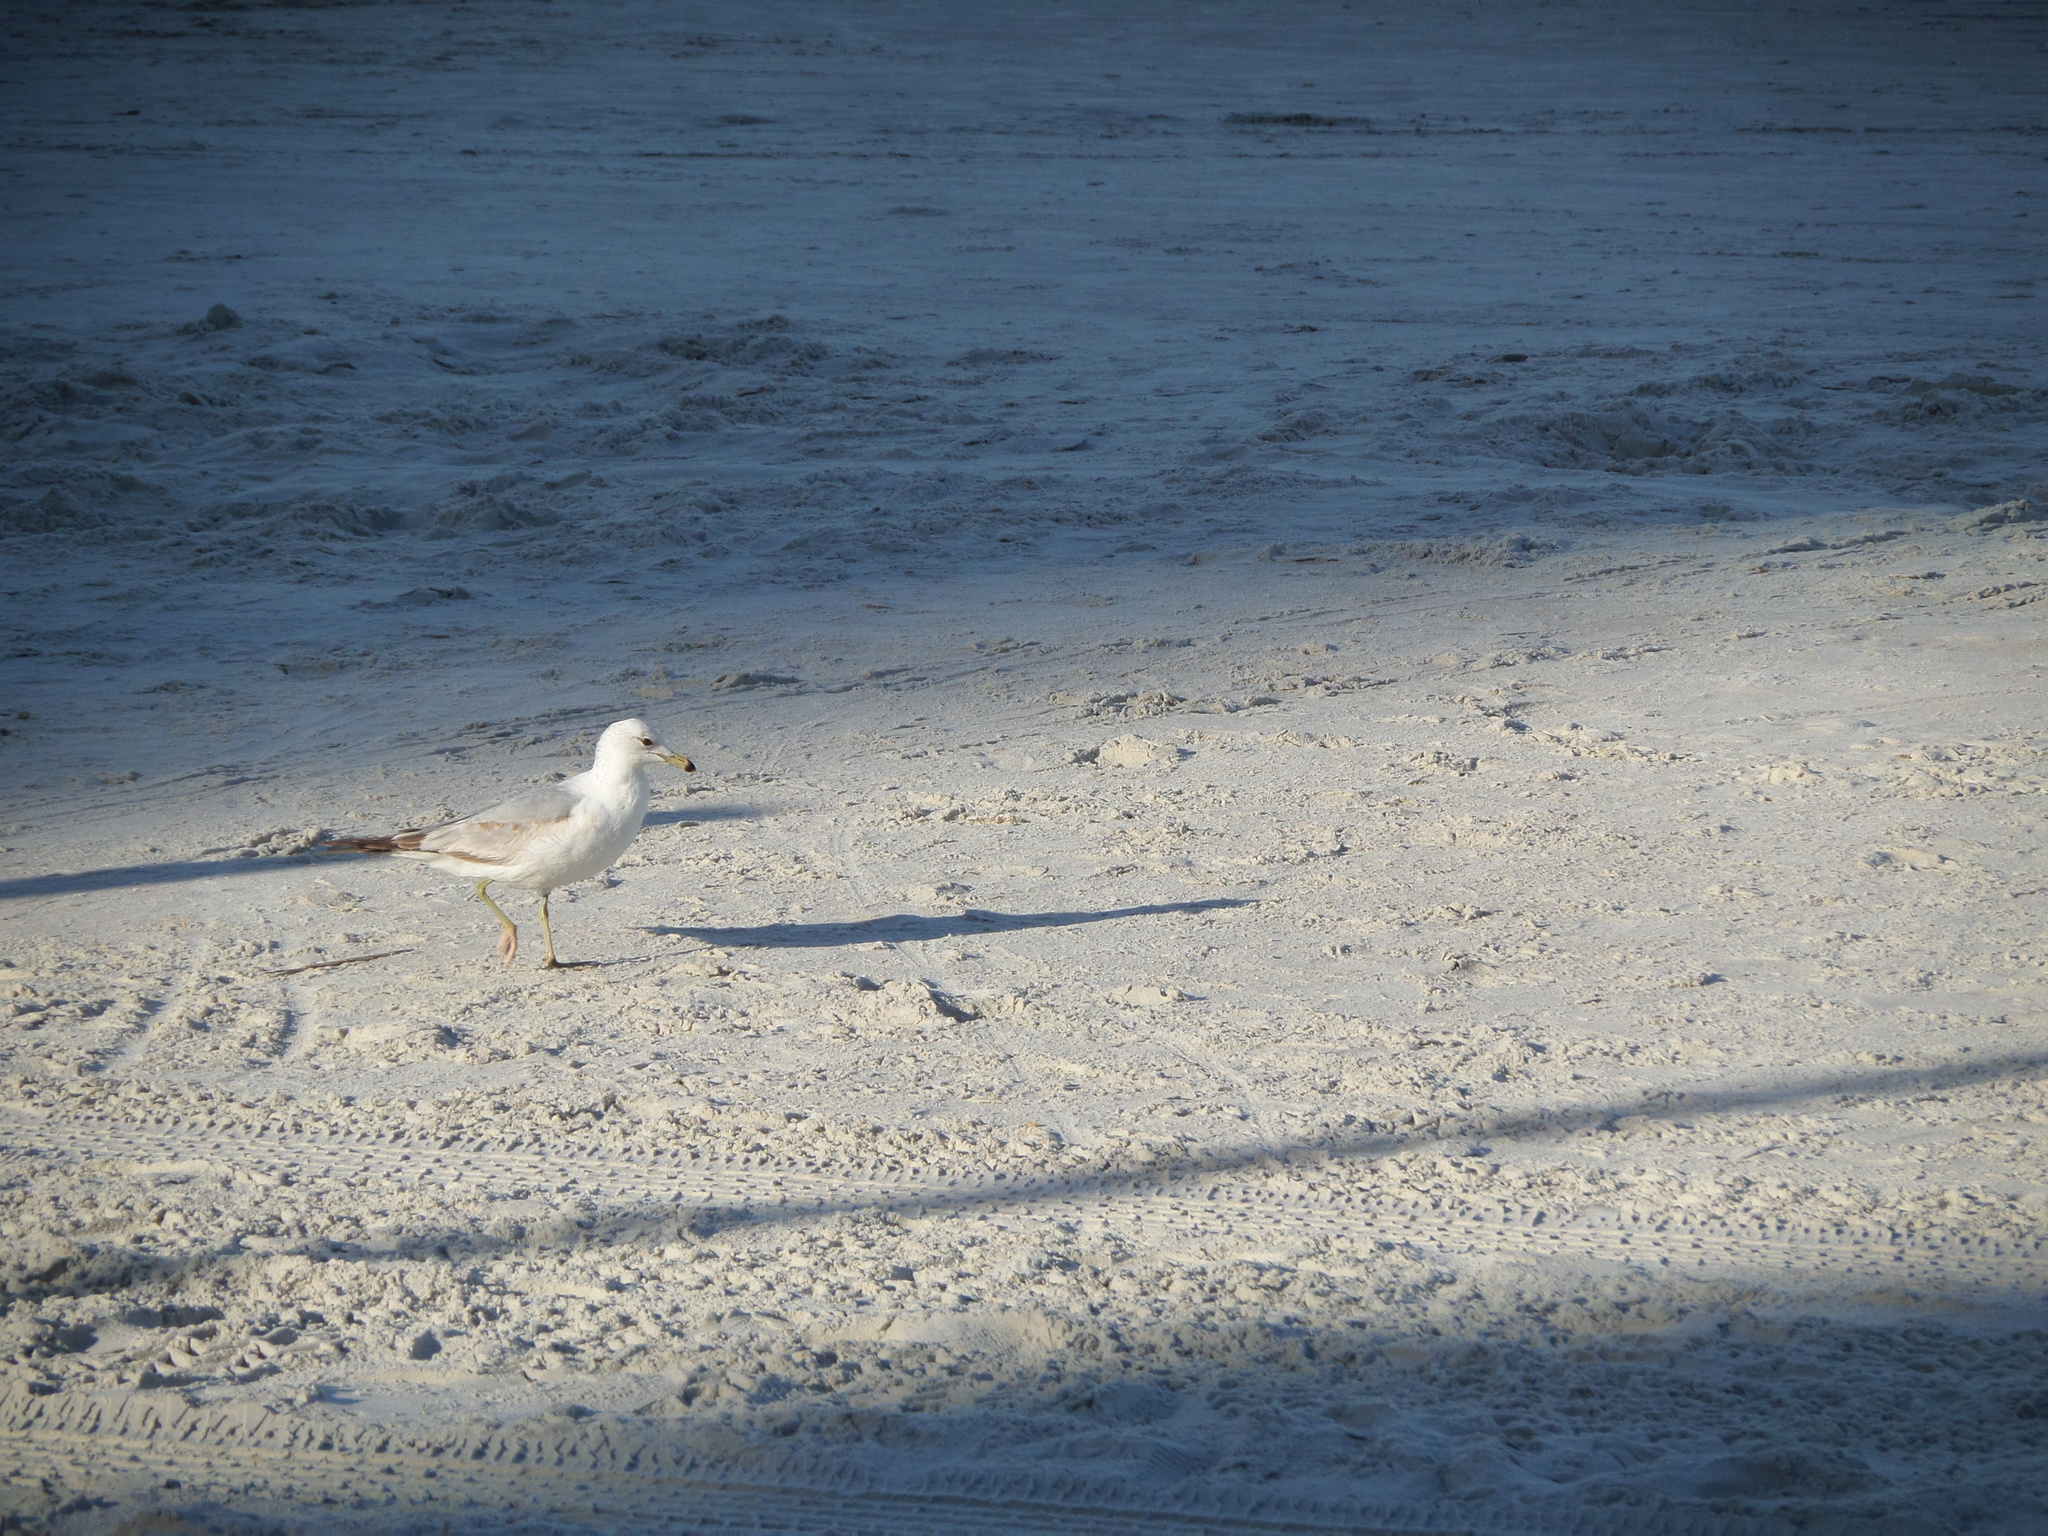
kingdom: Animalia
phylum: Chordata
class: Aves
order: Charadriiformes
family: Laridae
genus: Larus
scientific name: Larus delawarensis
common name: Ring-billed gull
